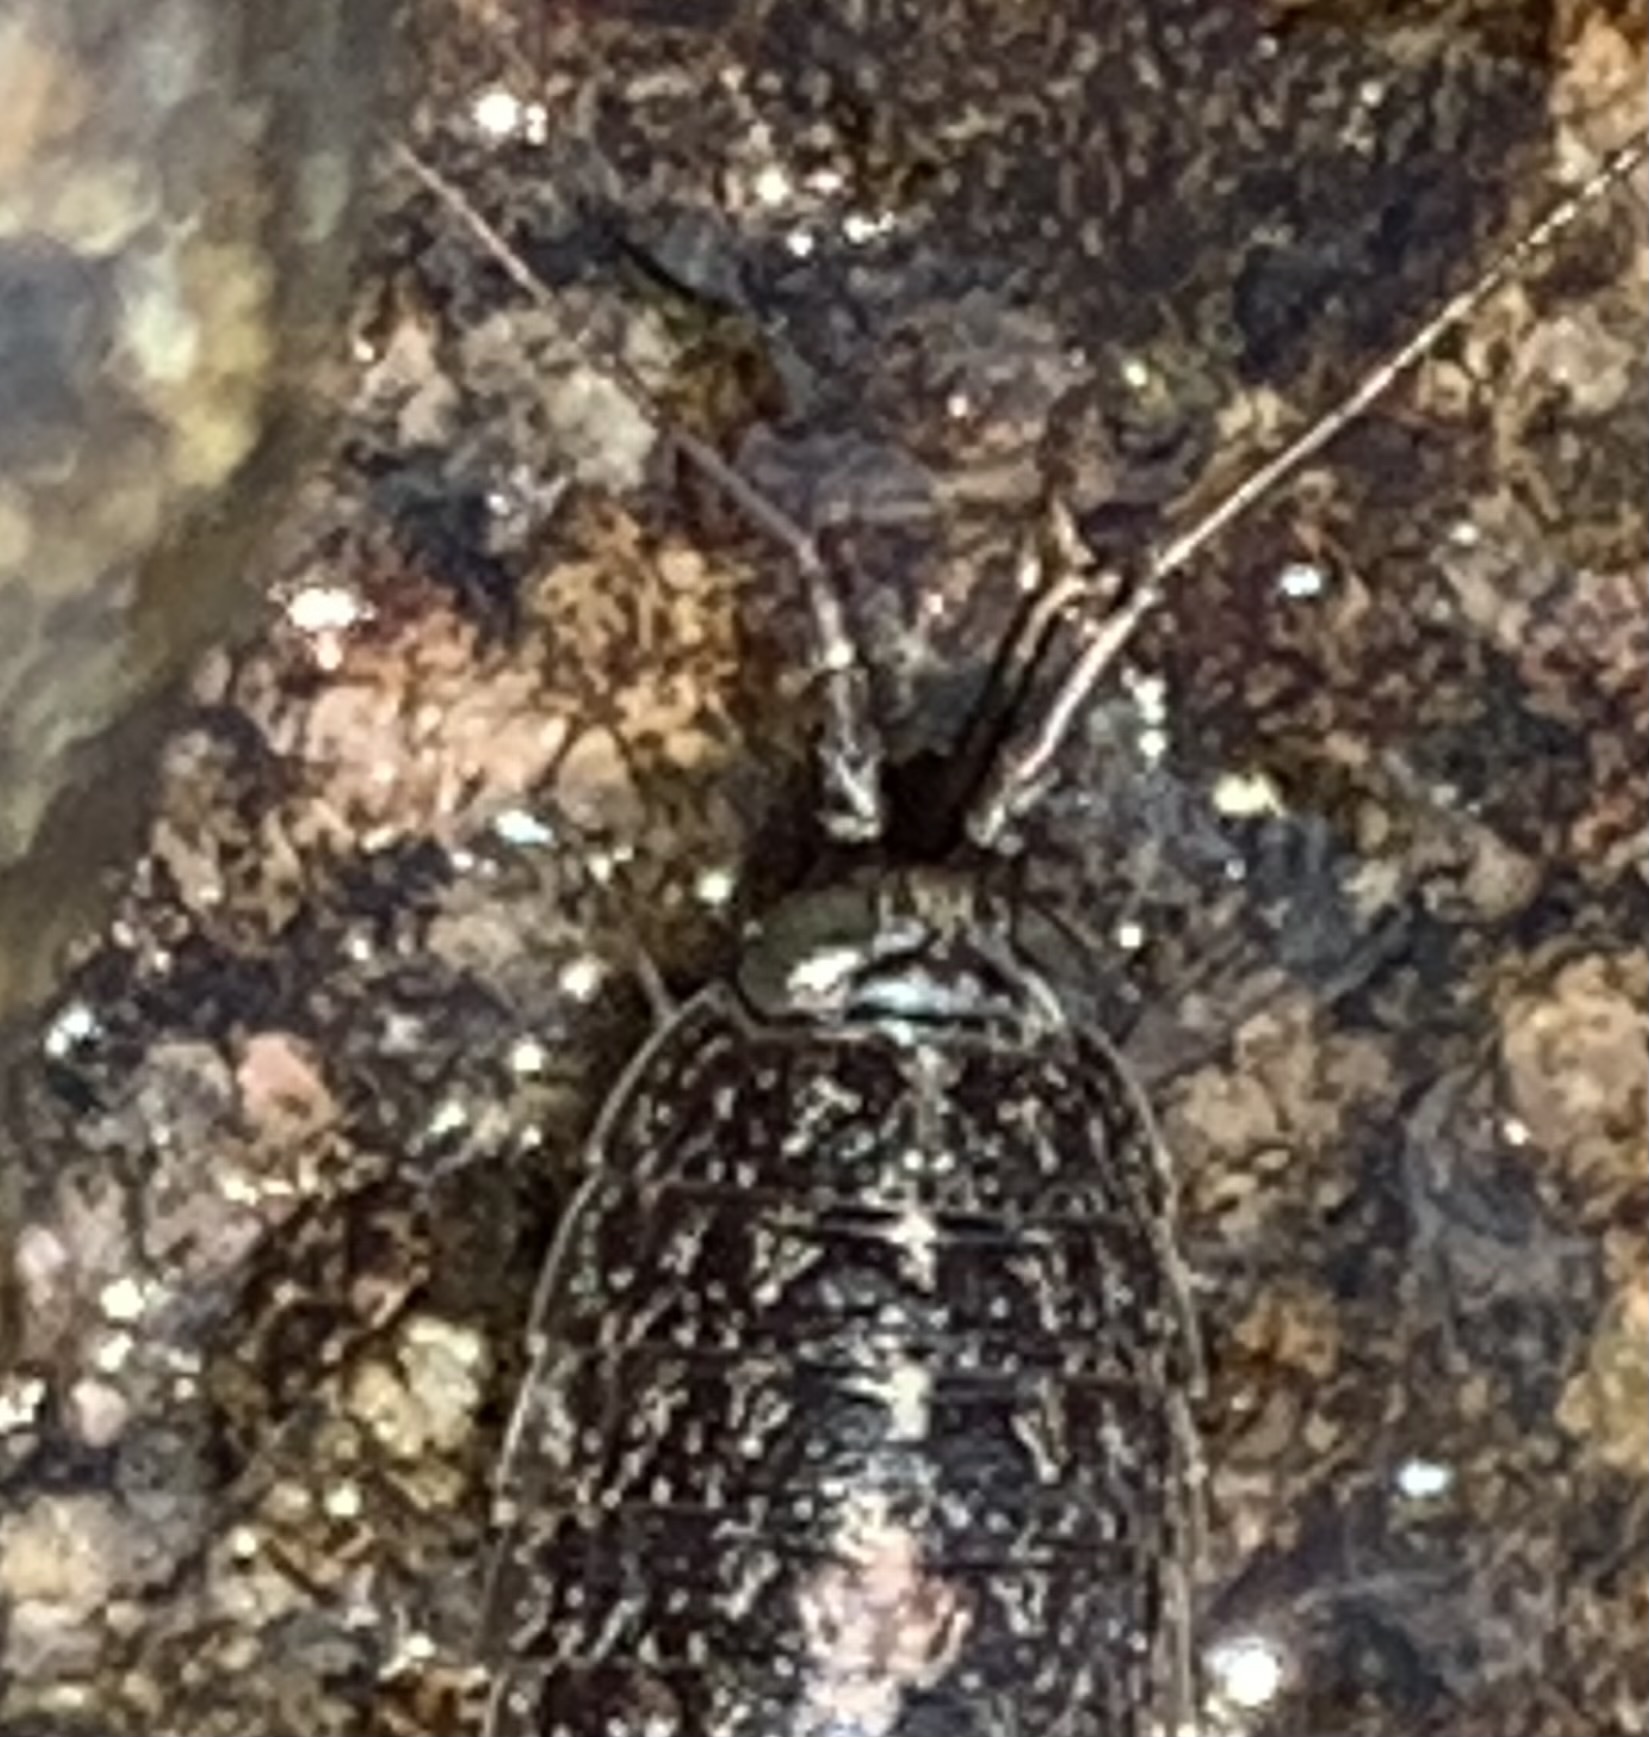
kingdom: Animalia
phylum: Arthropoda
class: Malacostraca
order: Isopoda
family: Ligiidae
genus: Ligia
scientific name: Ligia exotica
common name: Wharf roach
